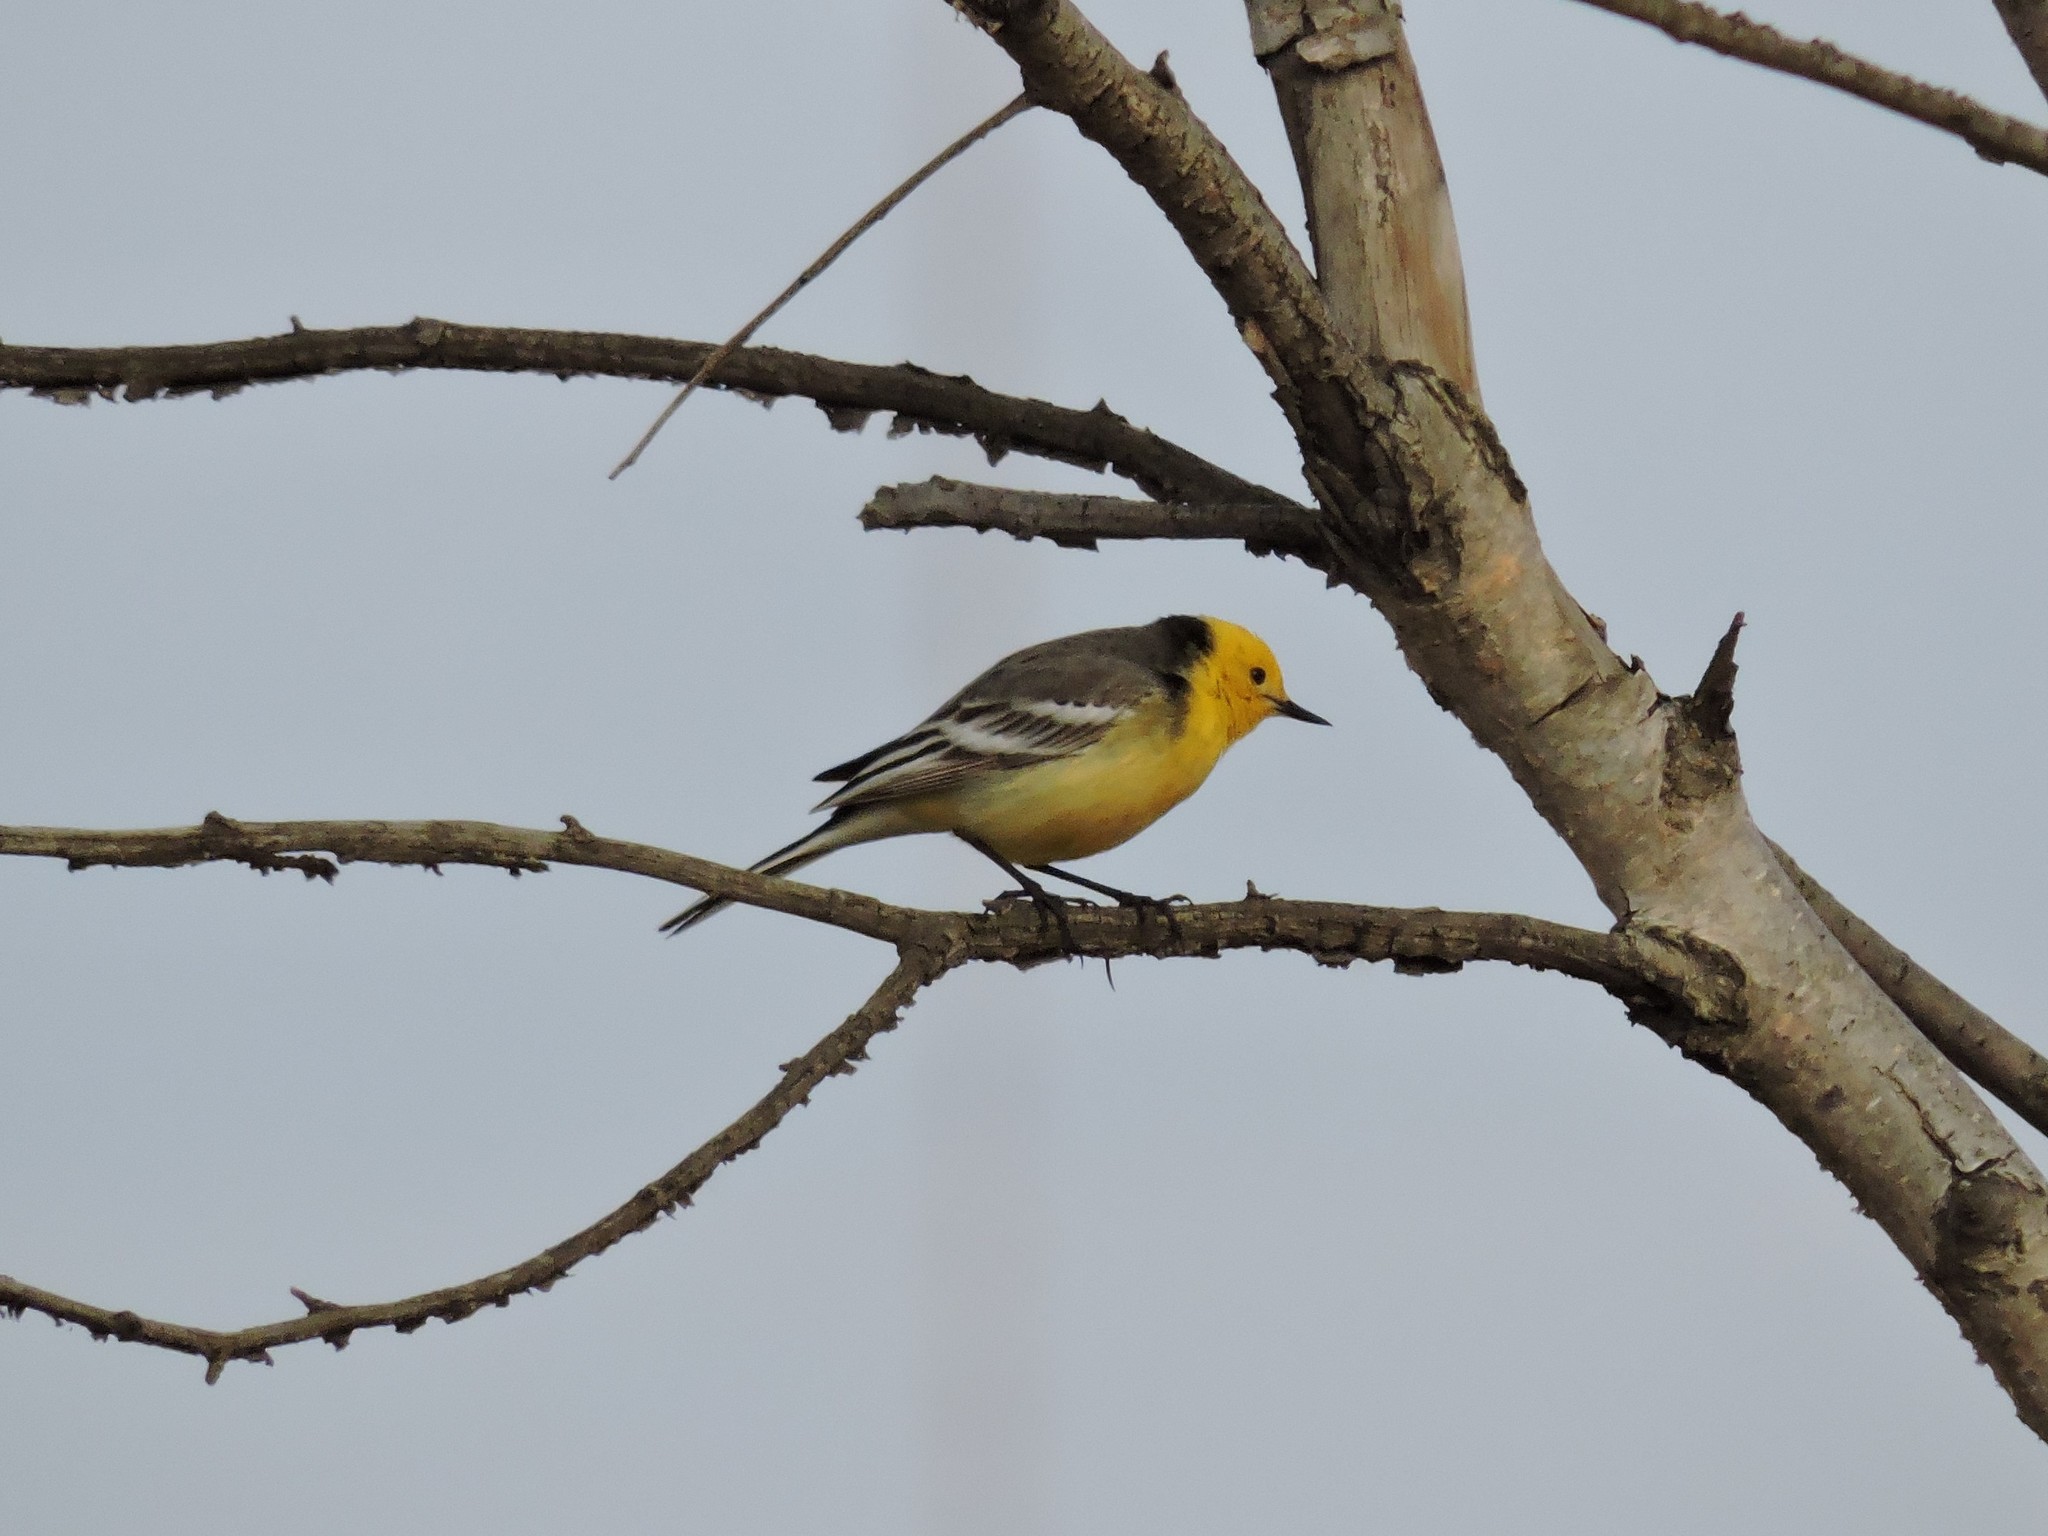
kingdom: Animalia
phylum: Chordata
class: Aves
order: Passeriformes
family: Motacillidae
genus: Motacilla
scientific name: Motacilla citreola
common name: Citrine wagtail
